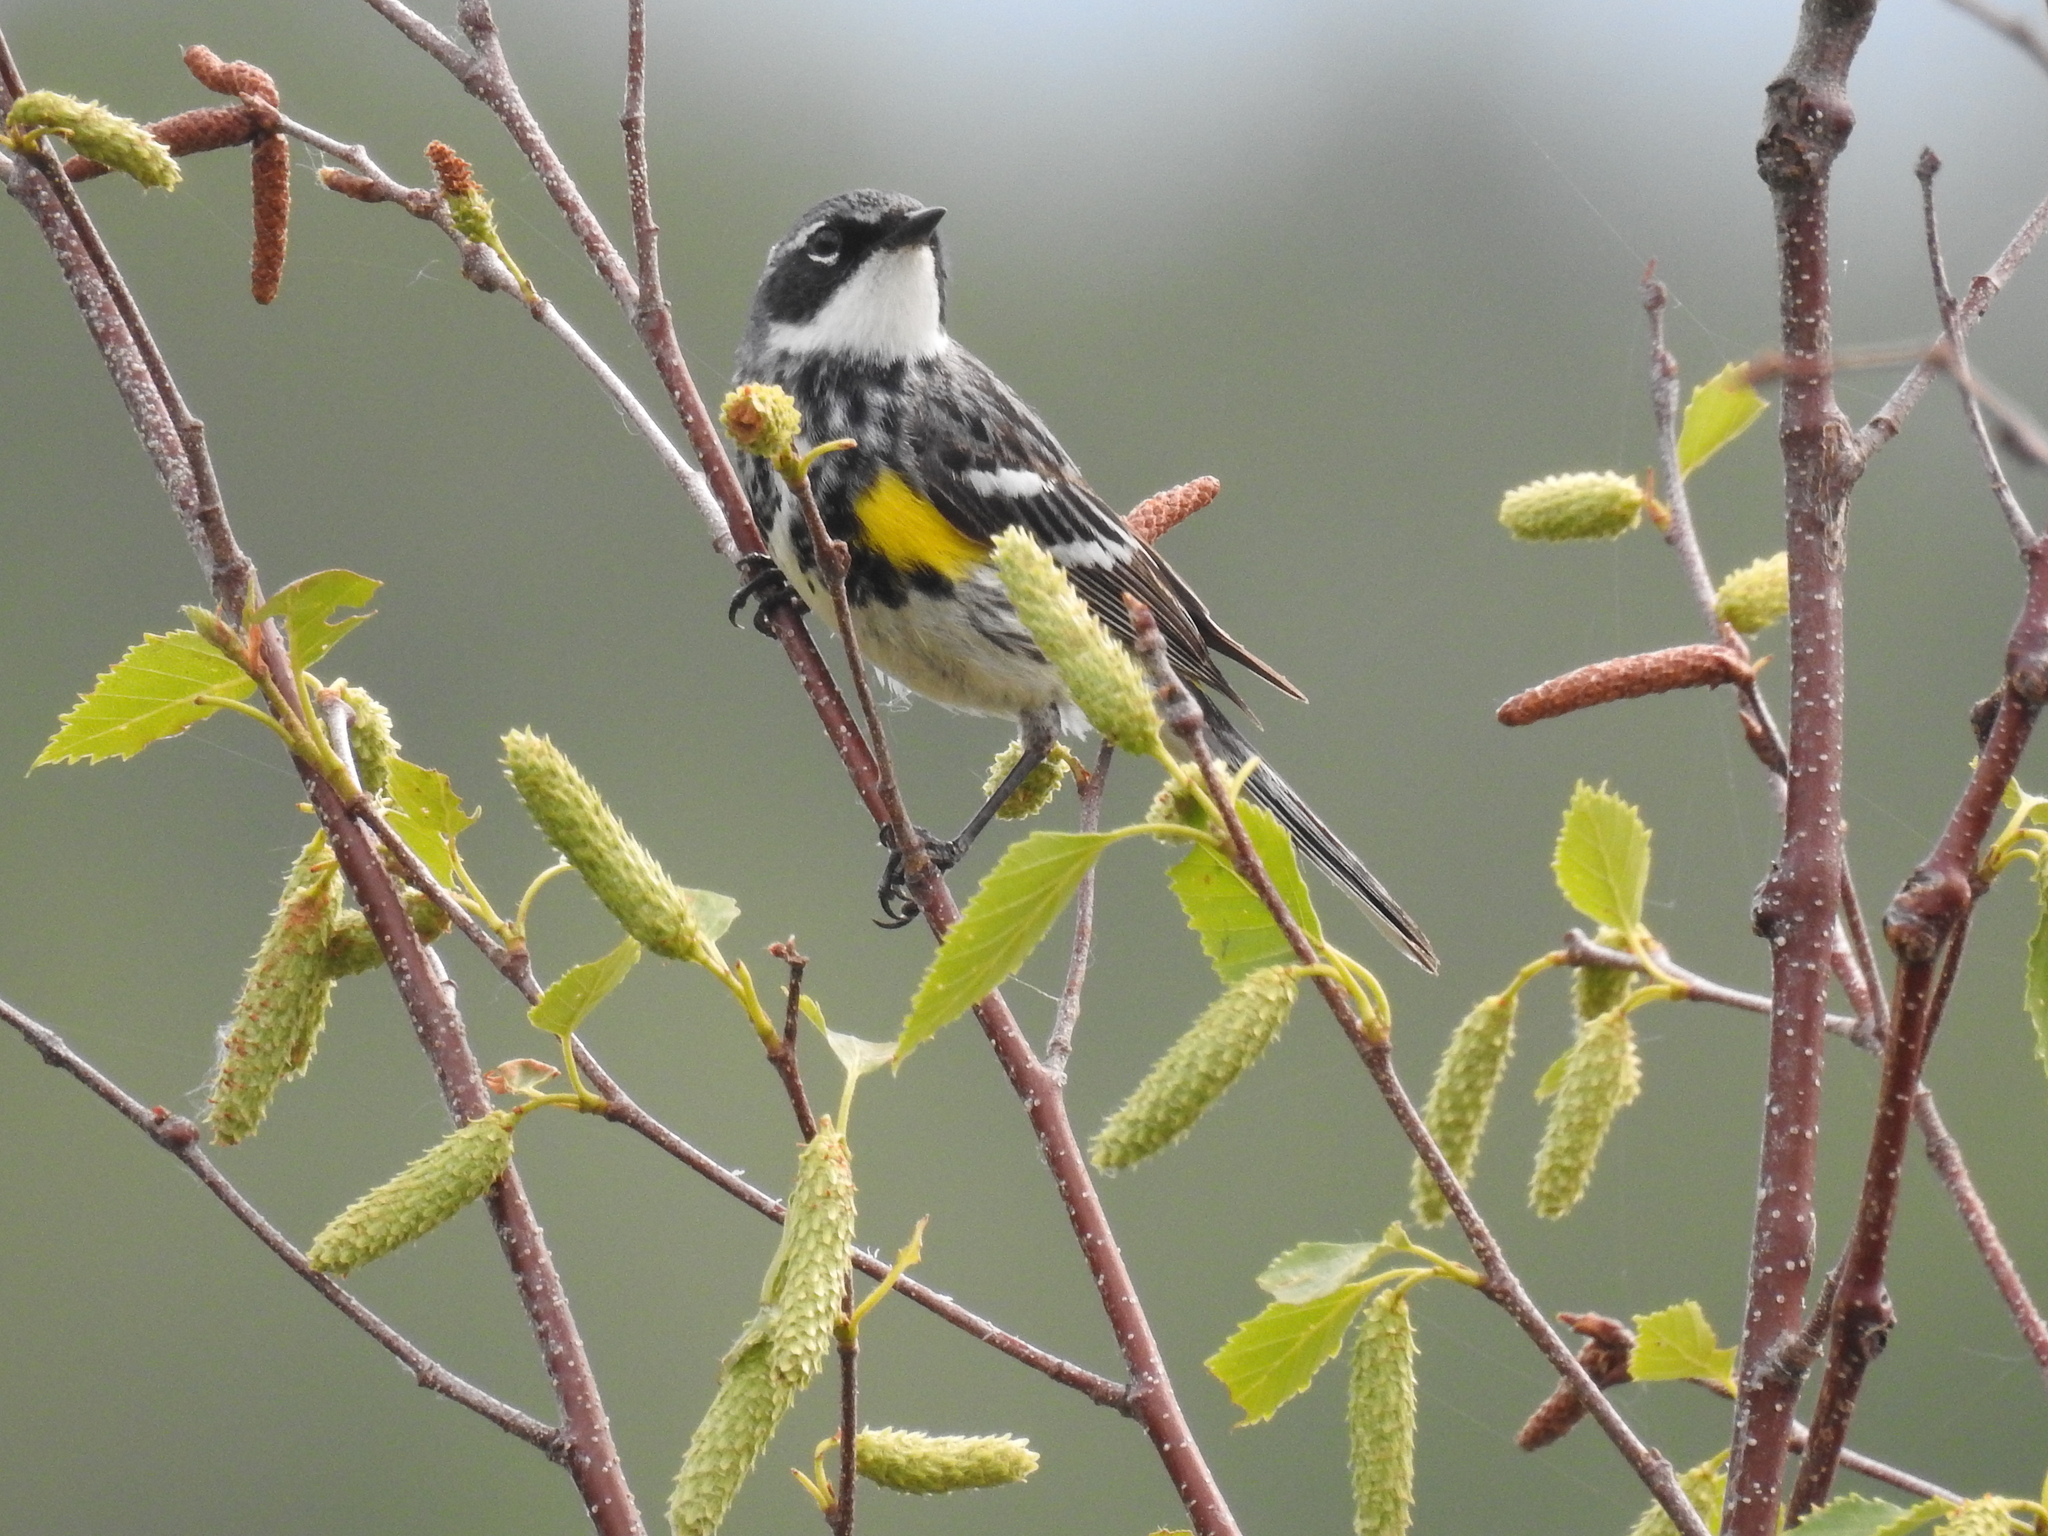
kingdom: Animalia
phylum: Chordata
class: Aves
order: Passeriformes
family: Parulidae
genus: Setophaga
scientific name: Setophaga coronata
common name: Myrtle warbler
